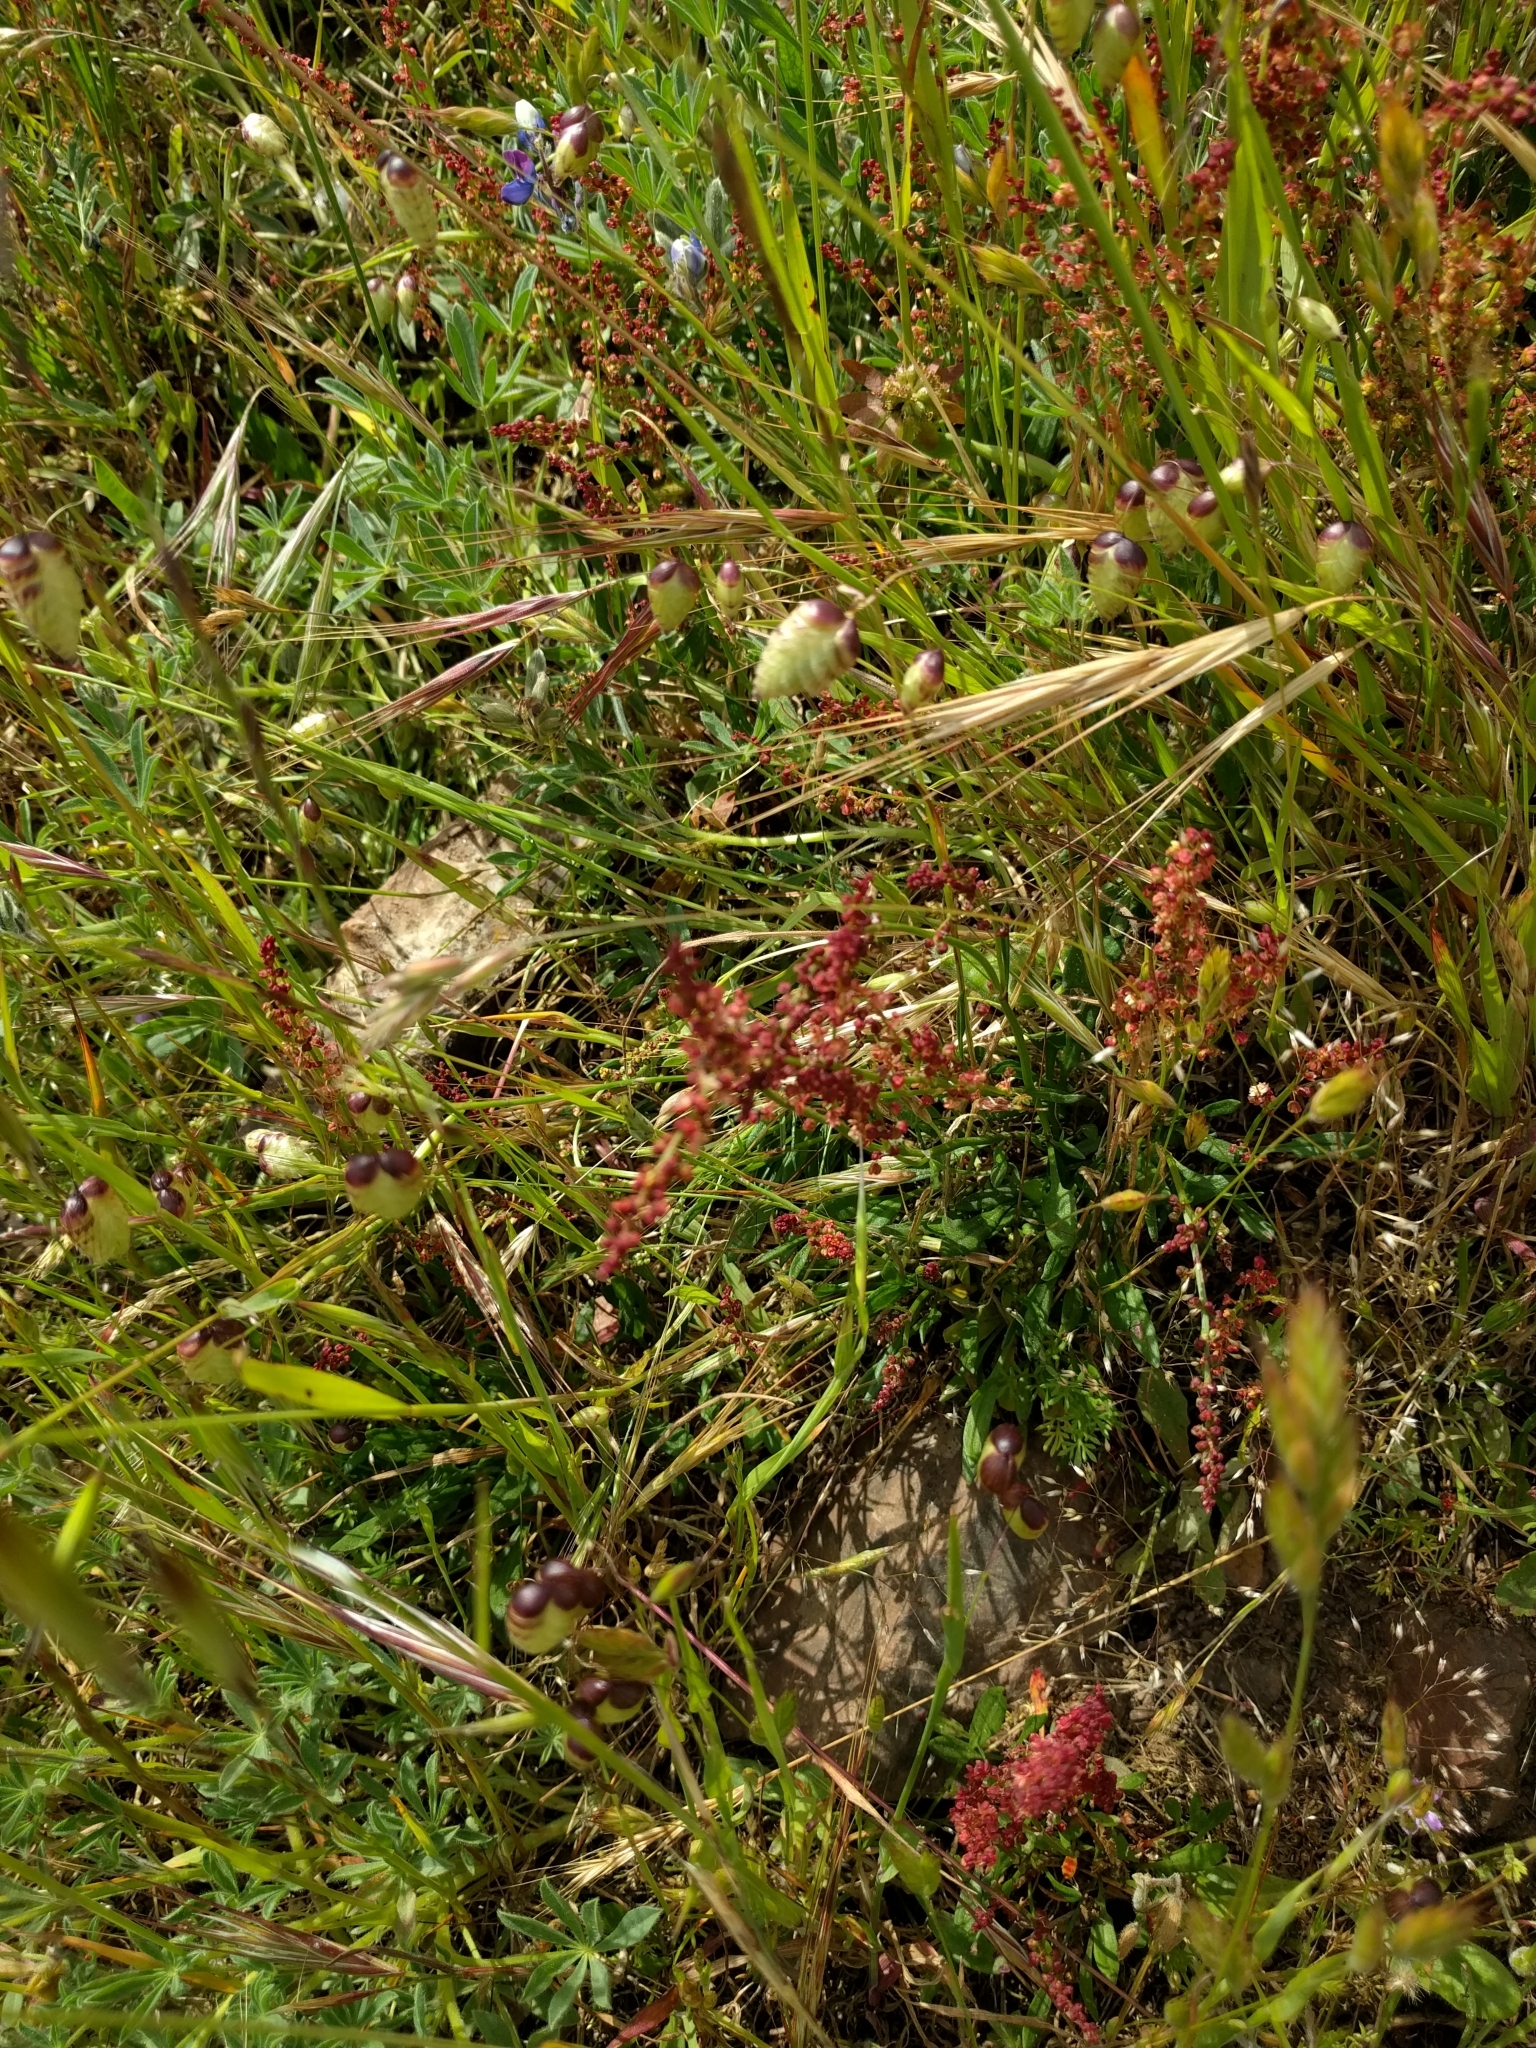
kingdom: Plantae
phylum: Tracheophyta
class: Magnoliopsida
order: Caryophyllales
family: Polygonaceae
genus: Rumex
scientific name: Rumex acetosella
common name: Common sheep sorrel
